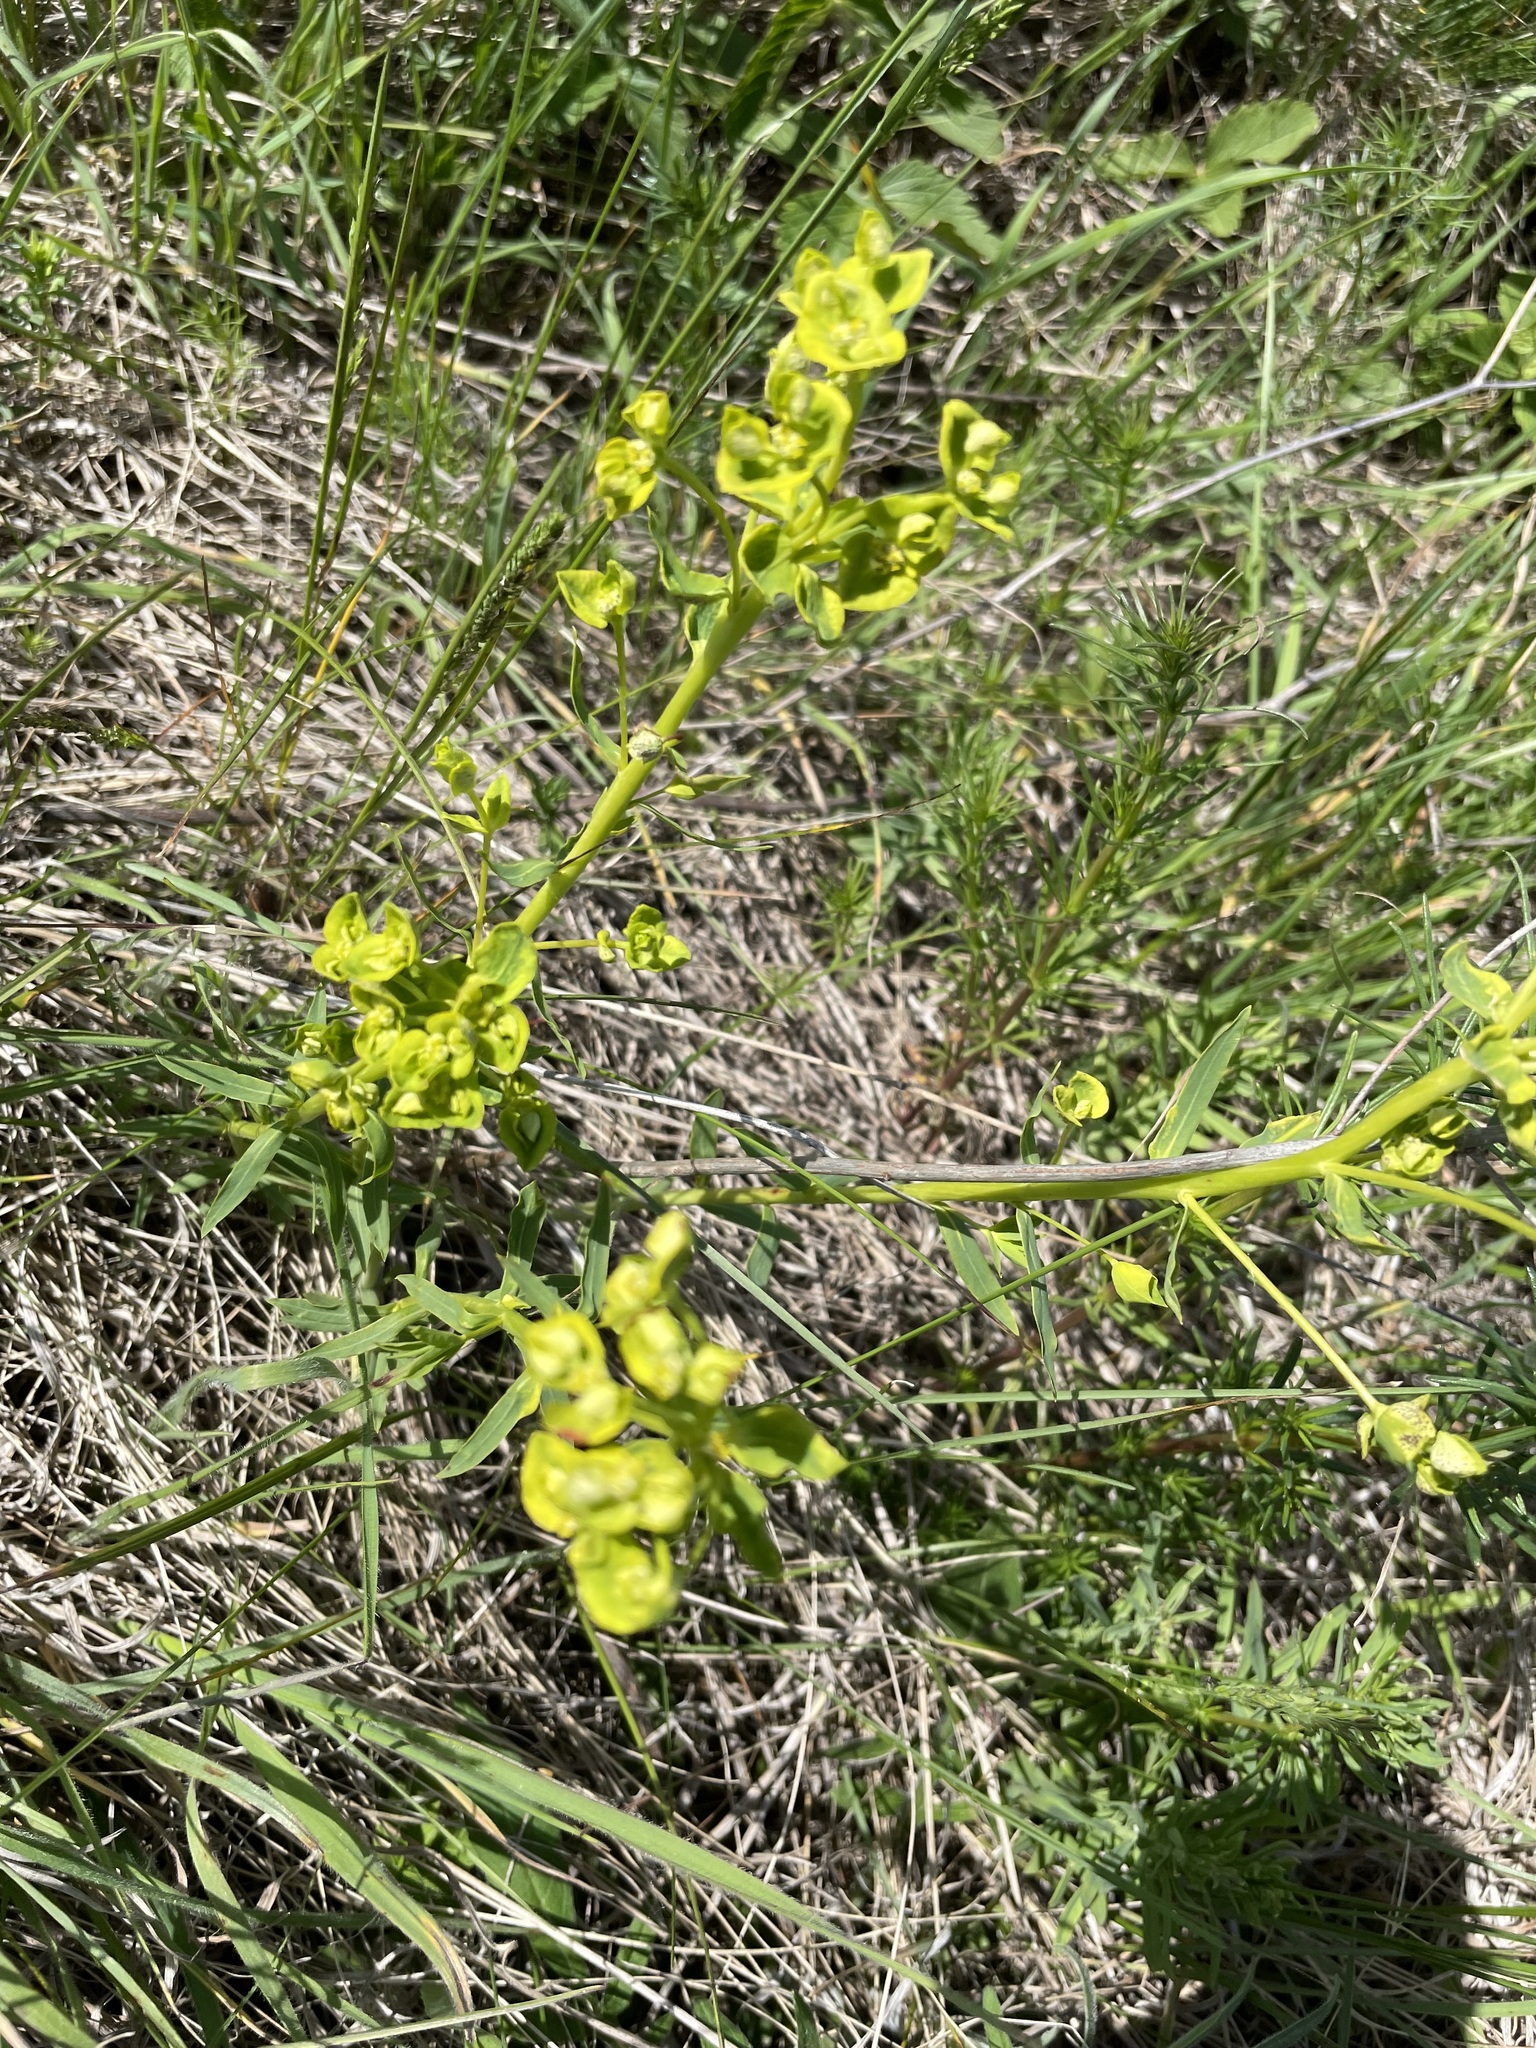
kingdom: Plantae
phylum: Tracheophyta
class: Magnoliopsida
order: Malpighiales
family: Euphorbiaceae
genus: Euphorbia
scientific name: Euphorbia virgata
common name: Leafy spurge
